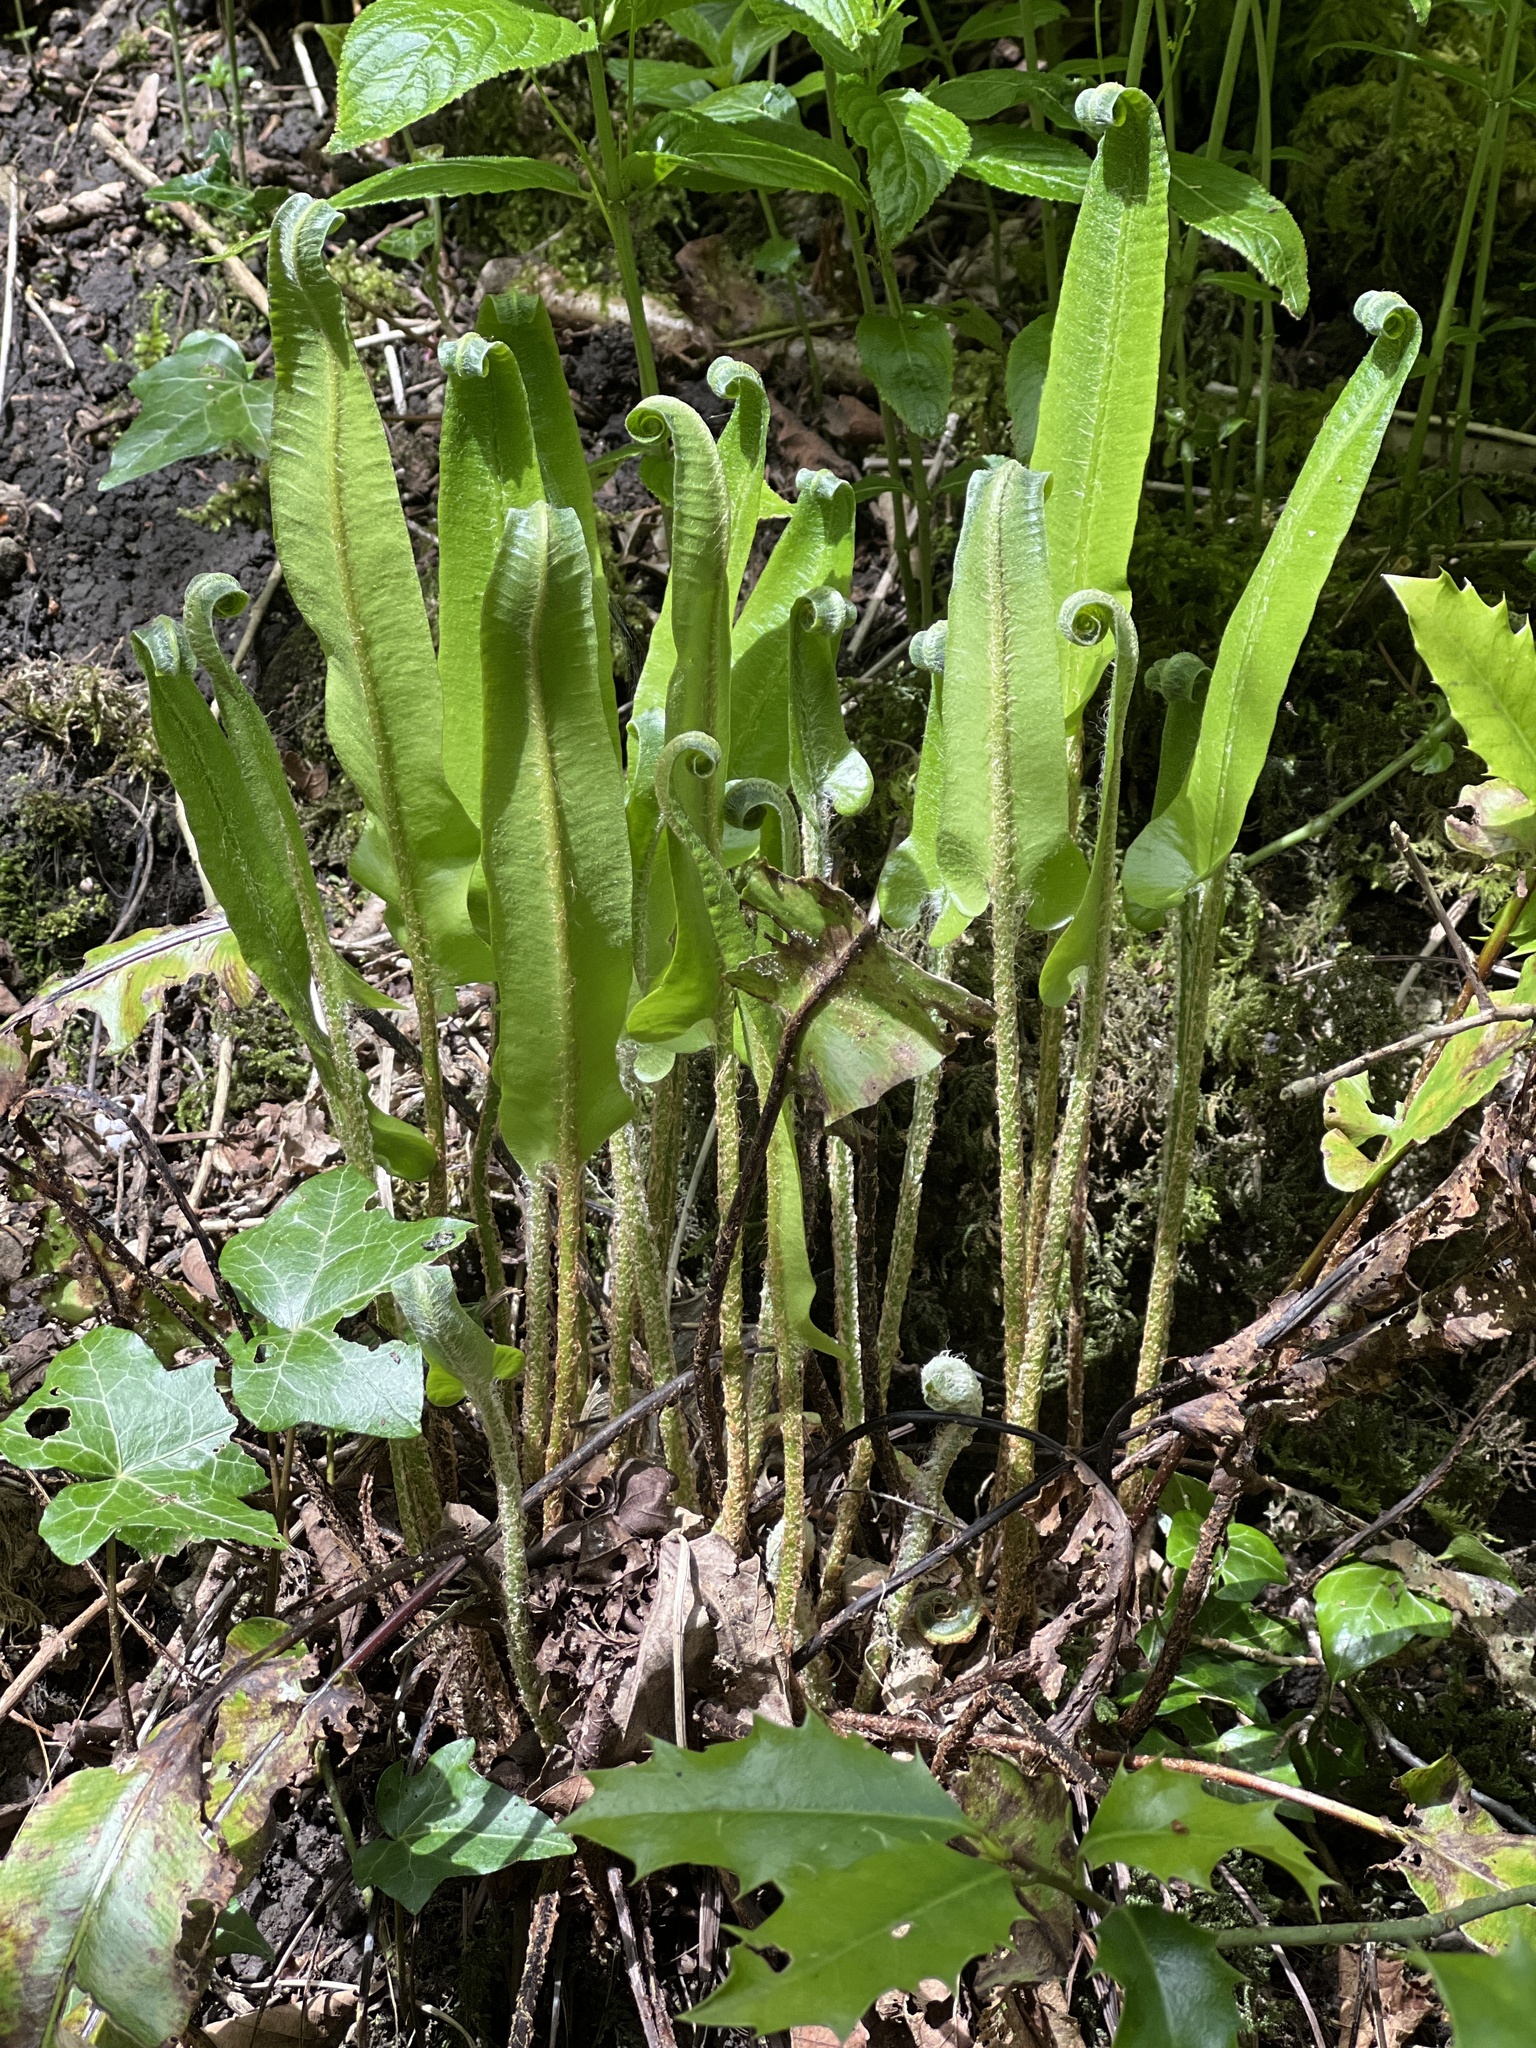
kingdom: Plantae
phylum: Tracheophyta
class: Polypodiopsida
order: Polypodiales
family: Aspleniaceae
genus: Asplenium
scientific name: Asplenium scolopendrium
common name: Hart's-tongue fern
